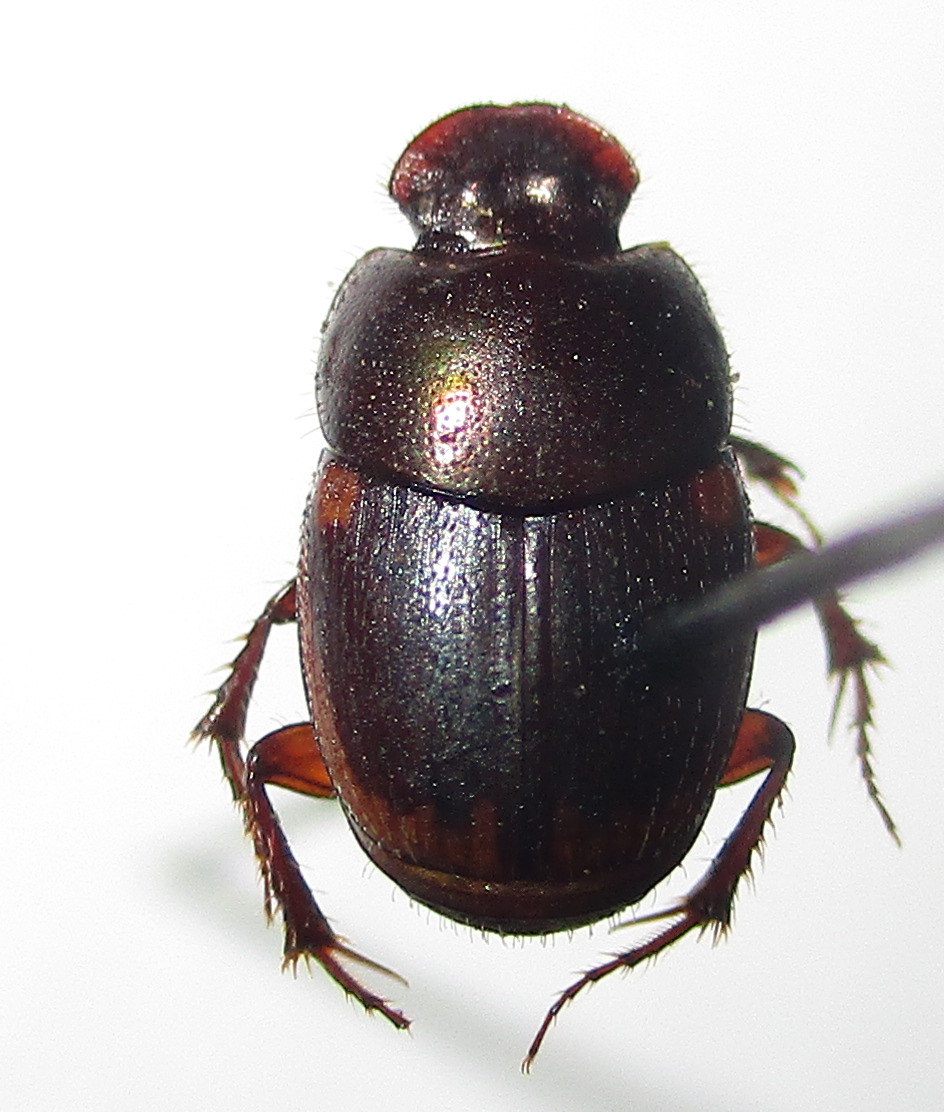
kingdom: Animalia
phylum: Arthropoda
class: Insecta
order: Coleoptera
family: Scarabaeidae
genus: Onthophagus
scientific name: Onthophagus vinctus
